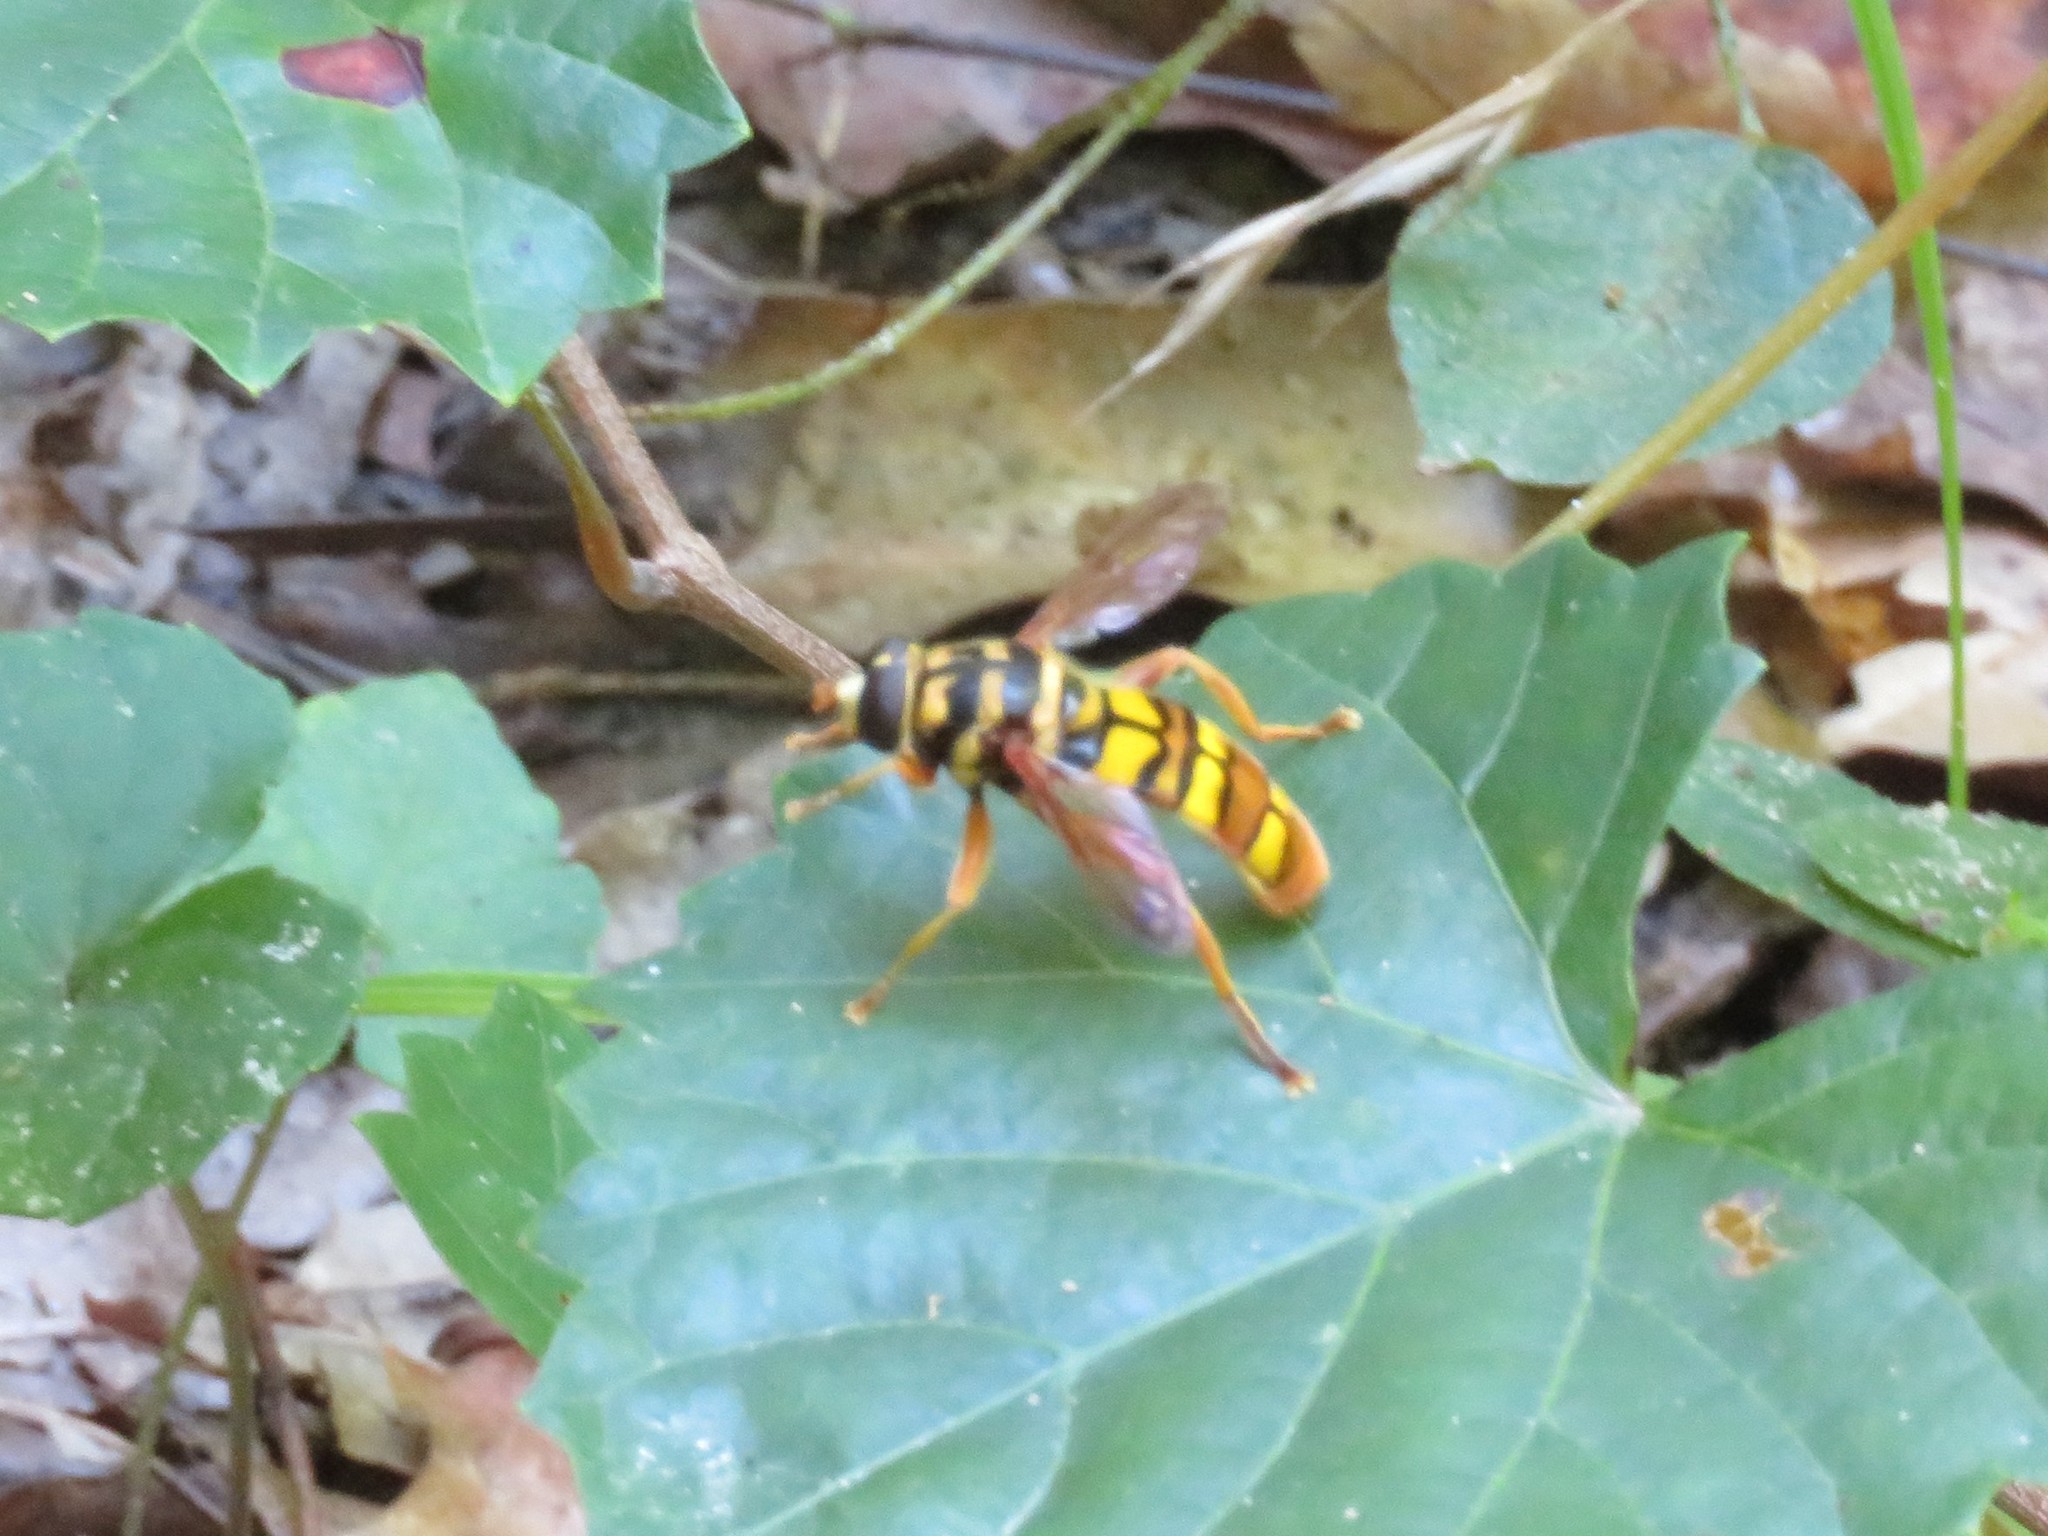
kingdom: Animalia
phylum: Arthropoda
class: Insecta
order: Diptera
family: Syrphidae
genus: Milesia
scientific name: Milesia virginiensis
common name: Virginia giant
